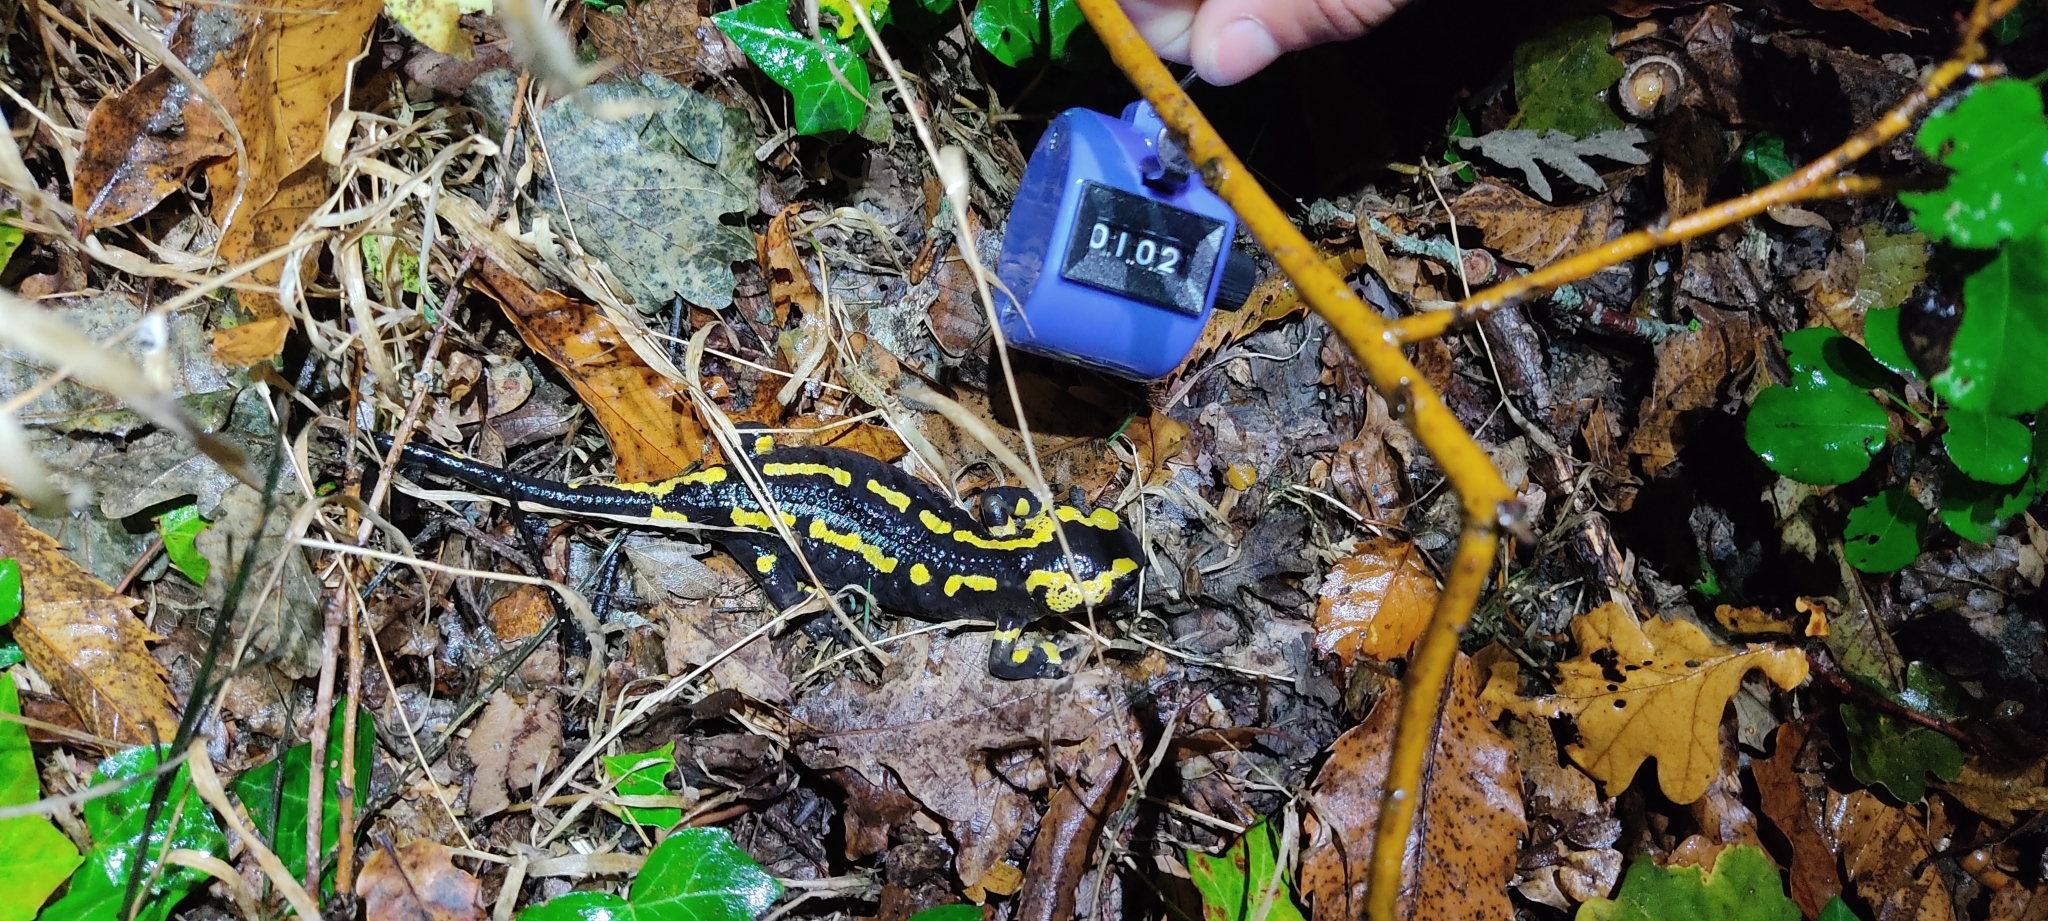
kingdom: Animalia
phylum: Chordata
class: Amphibia
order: Caudata
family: Salamandridae
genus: Salamandra
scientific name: Salamandra salamandra
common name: Fire salamander
